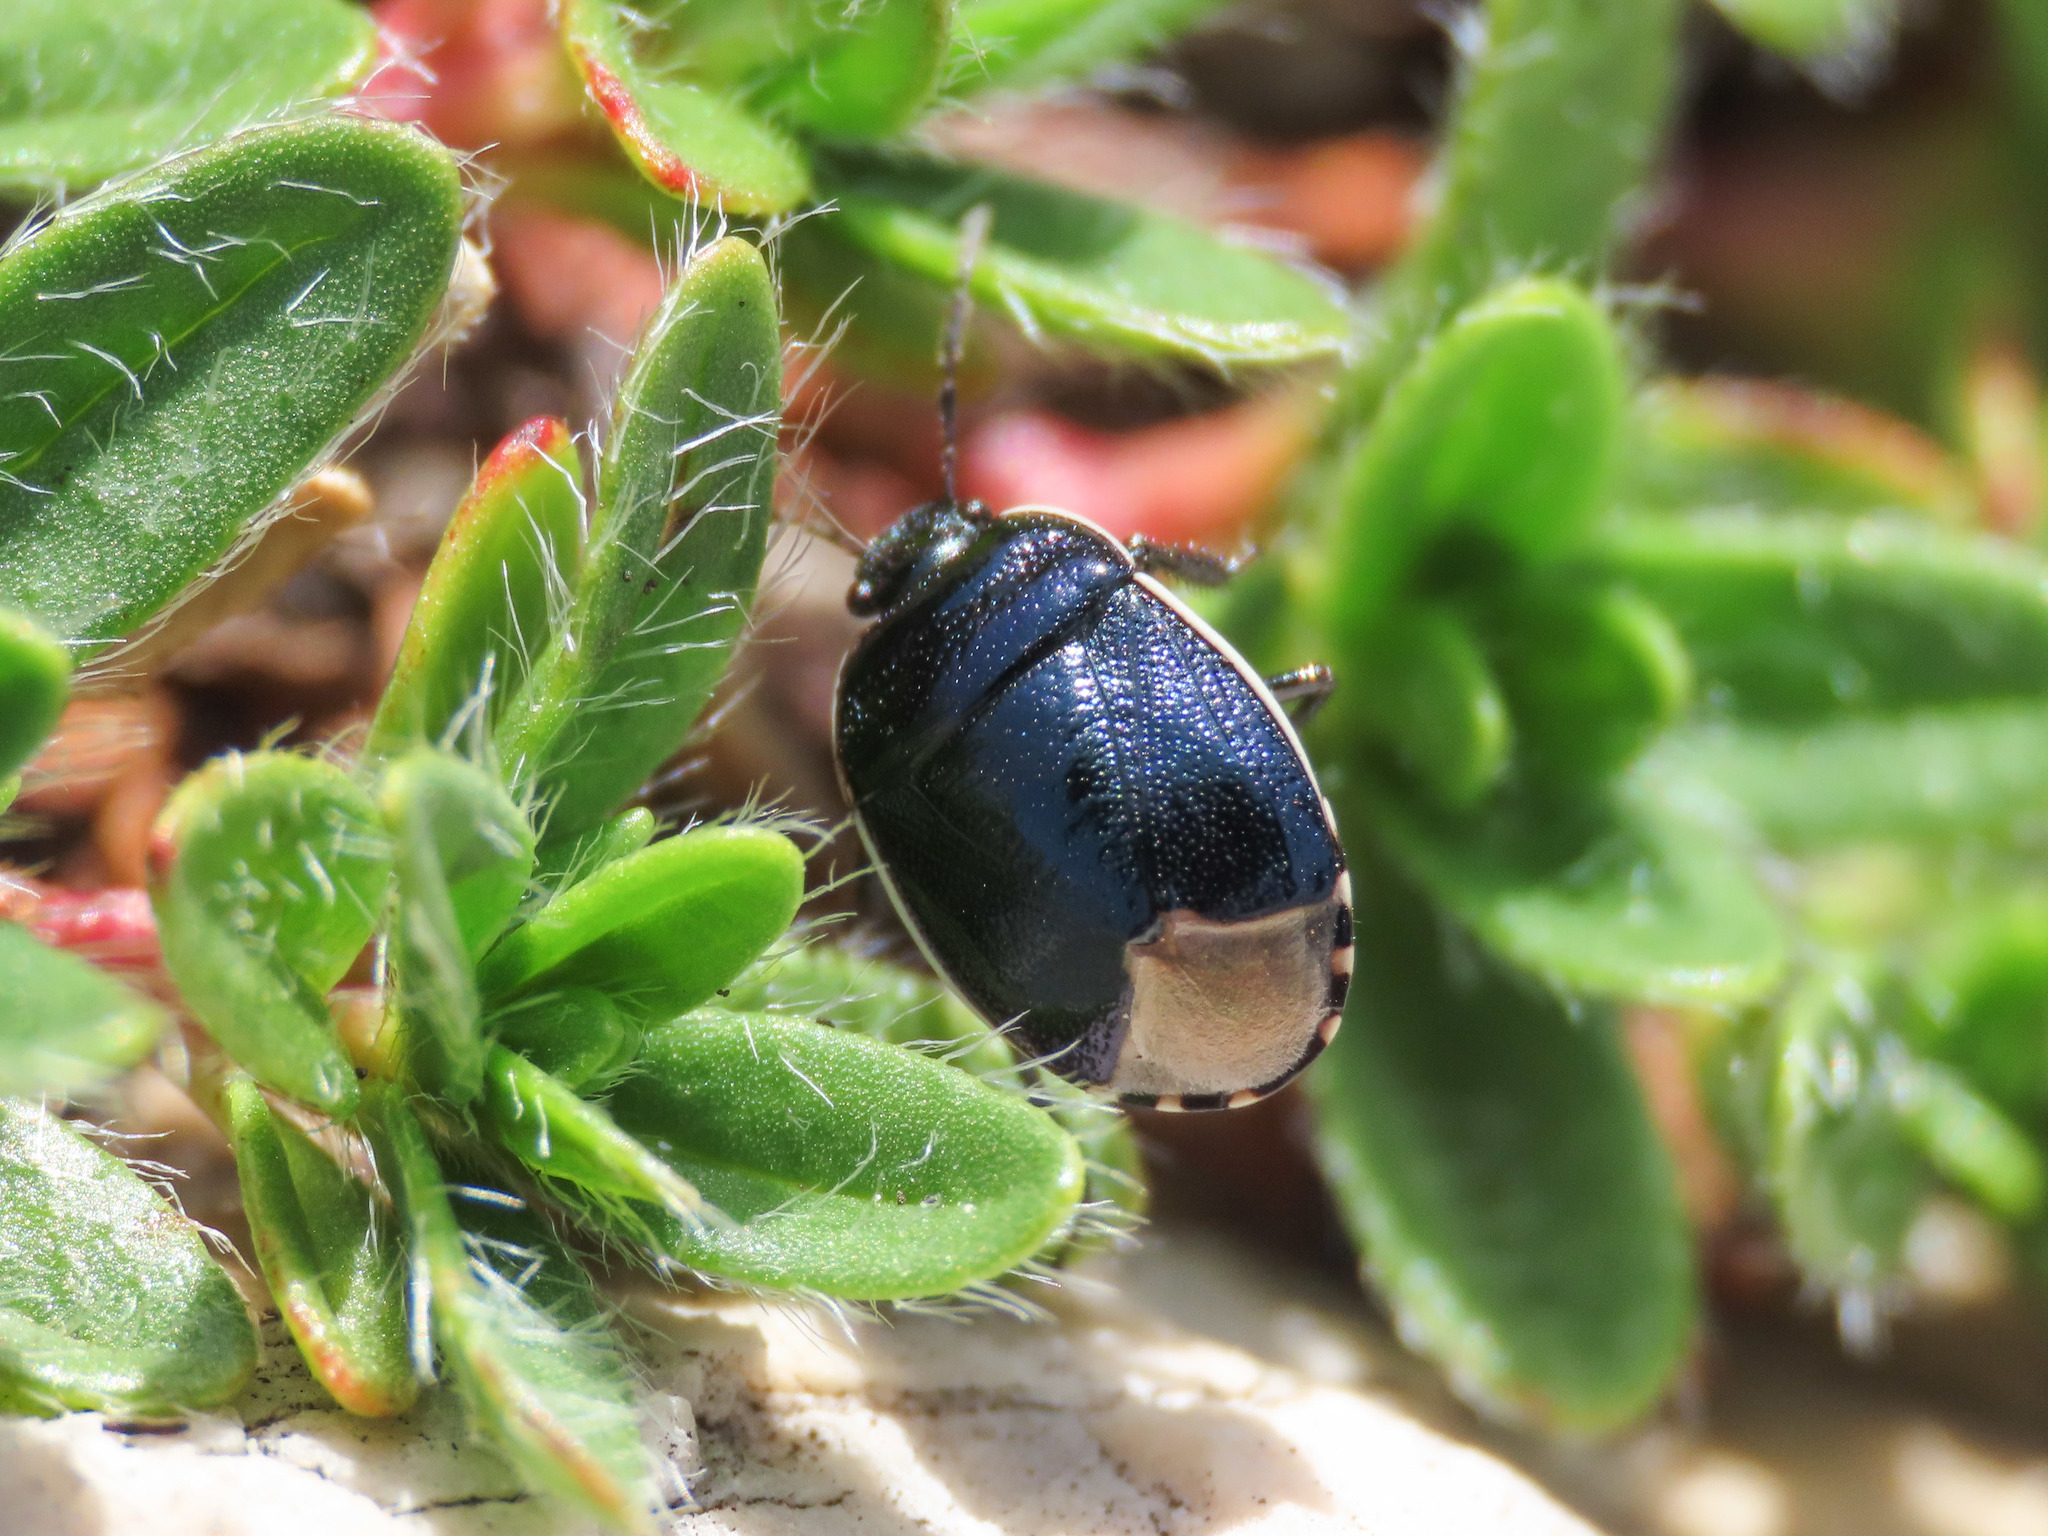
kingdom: Animalia
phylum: Arthropoda
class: Insecta
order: Hemiptera
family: Cydnidae
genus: Canthophorus
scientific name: Canthophorus impressus
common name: Bastard-toadflax bug
